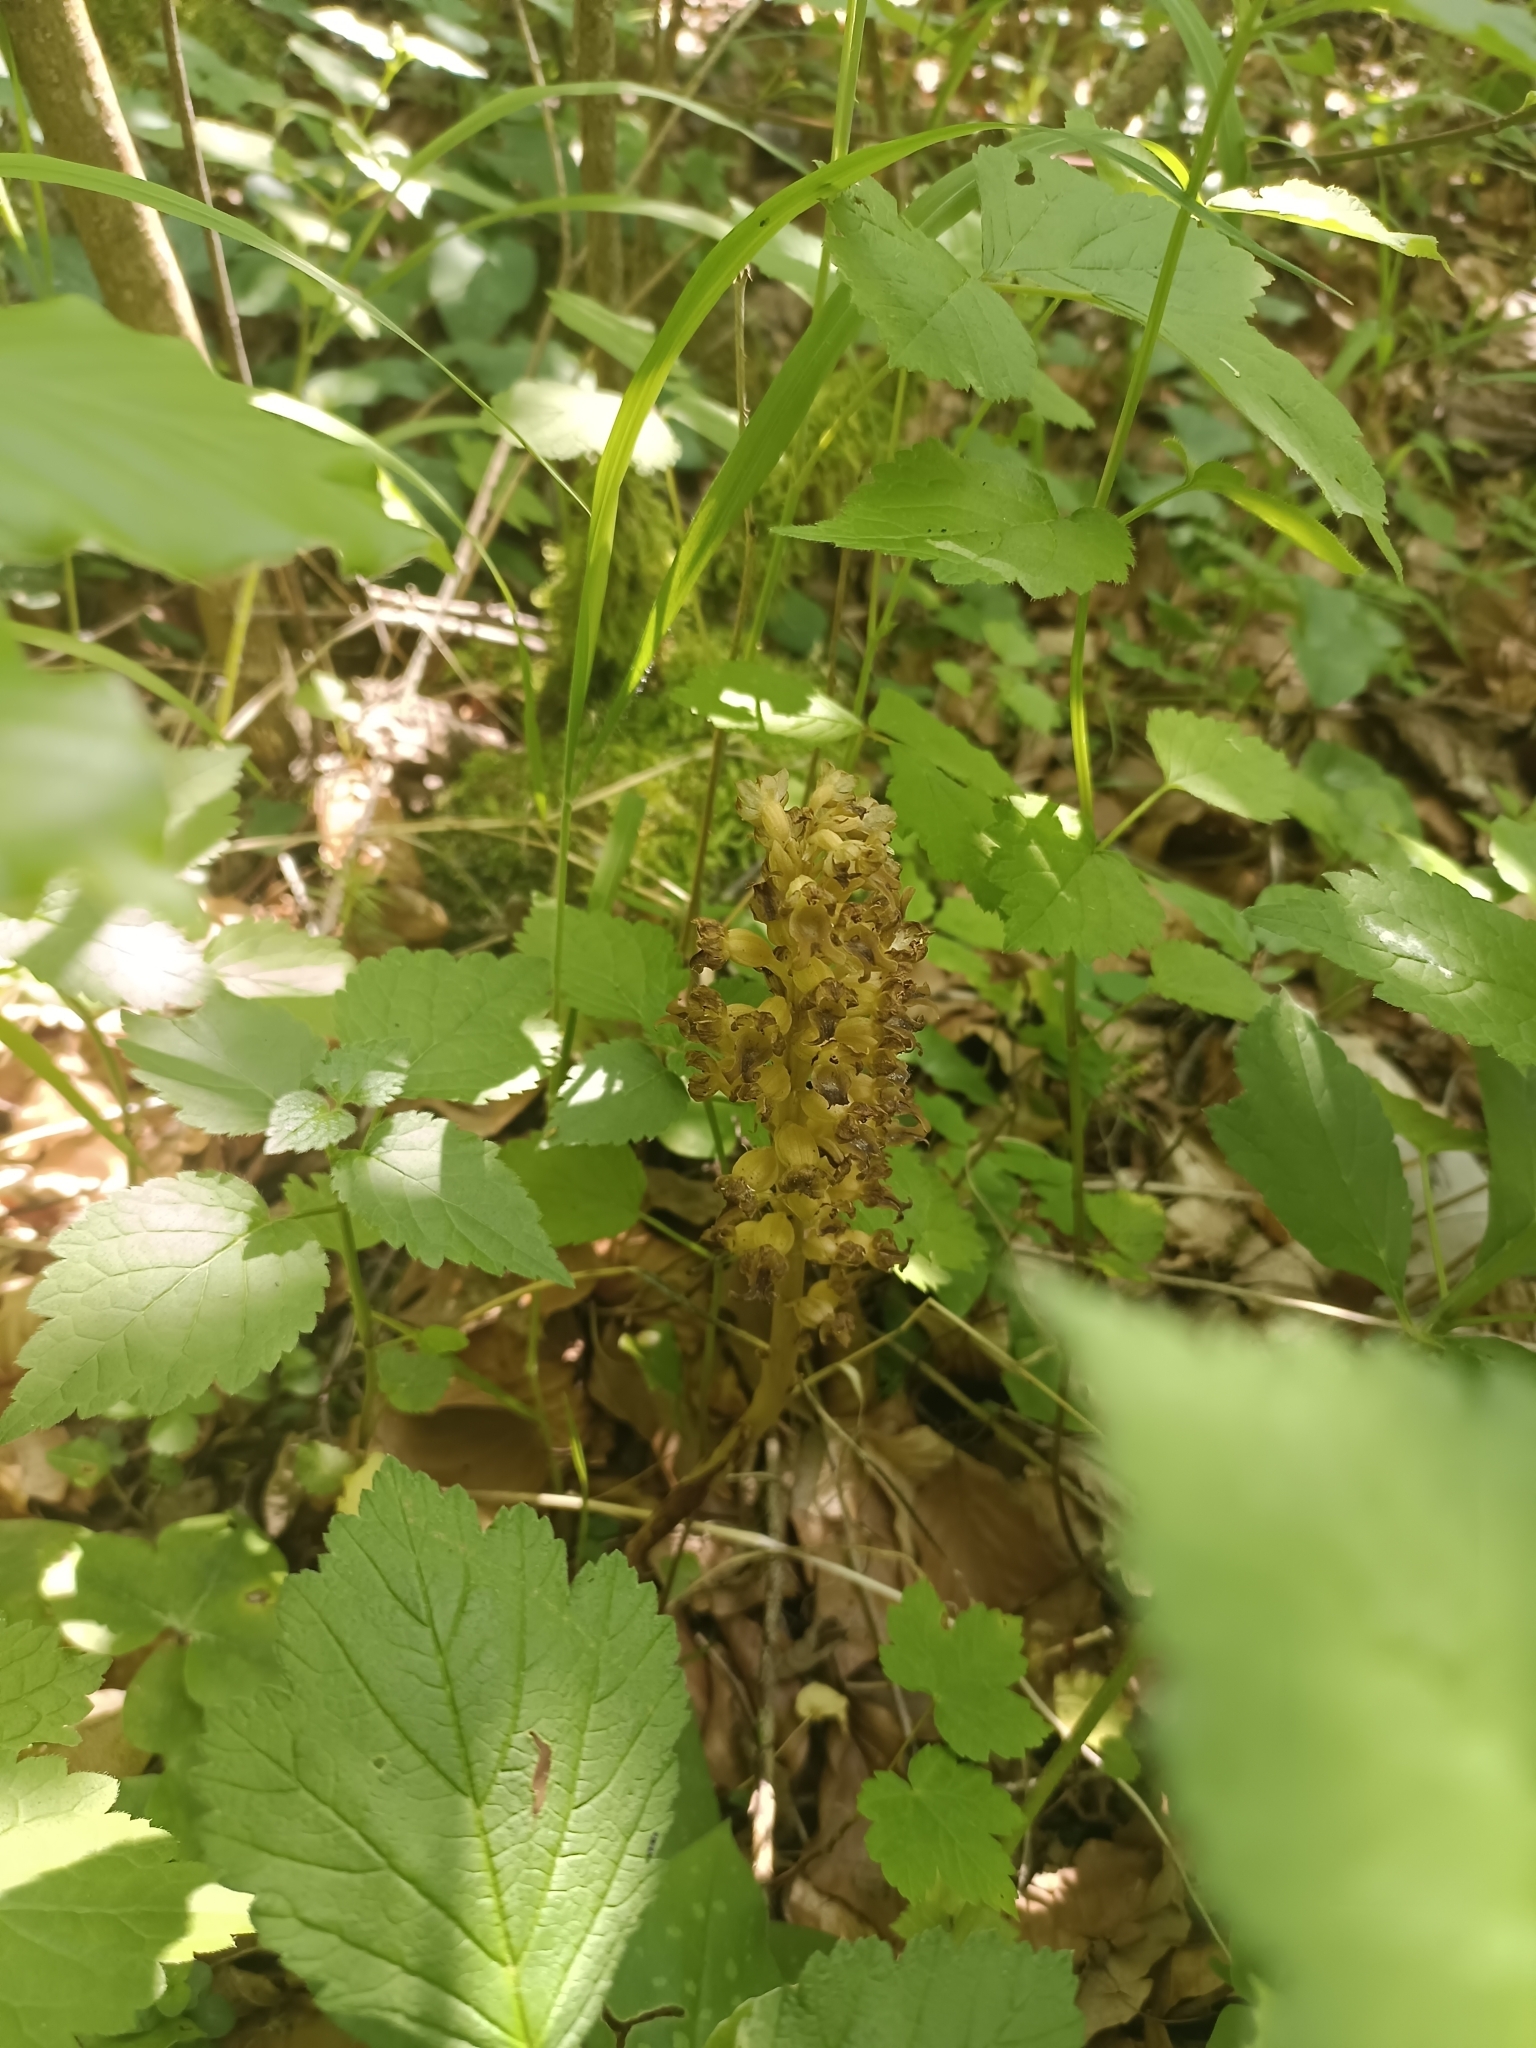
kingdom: Plantae
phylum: Tracheophyta
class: Liliopsida
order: Asparagales
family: Orchidaceae
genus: Neottia
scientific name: Neottia nidus-avis
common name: Bird's-nest orchid
